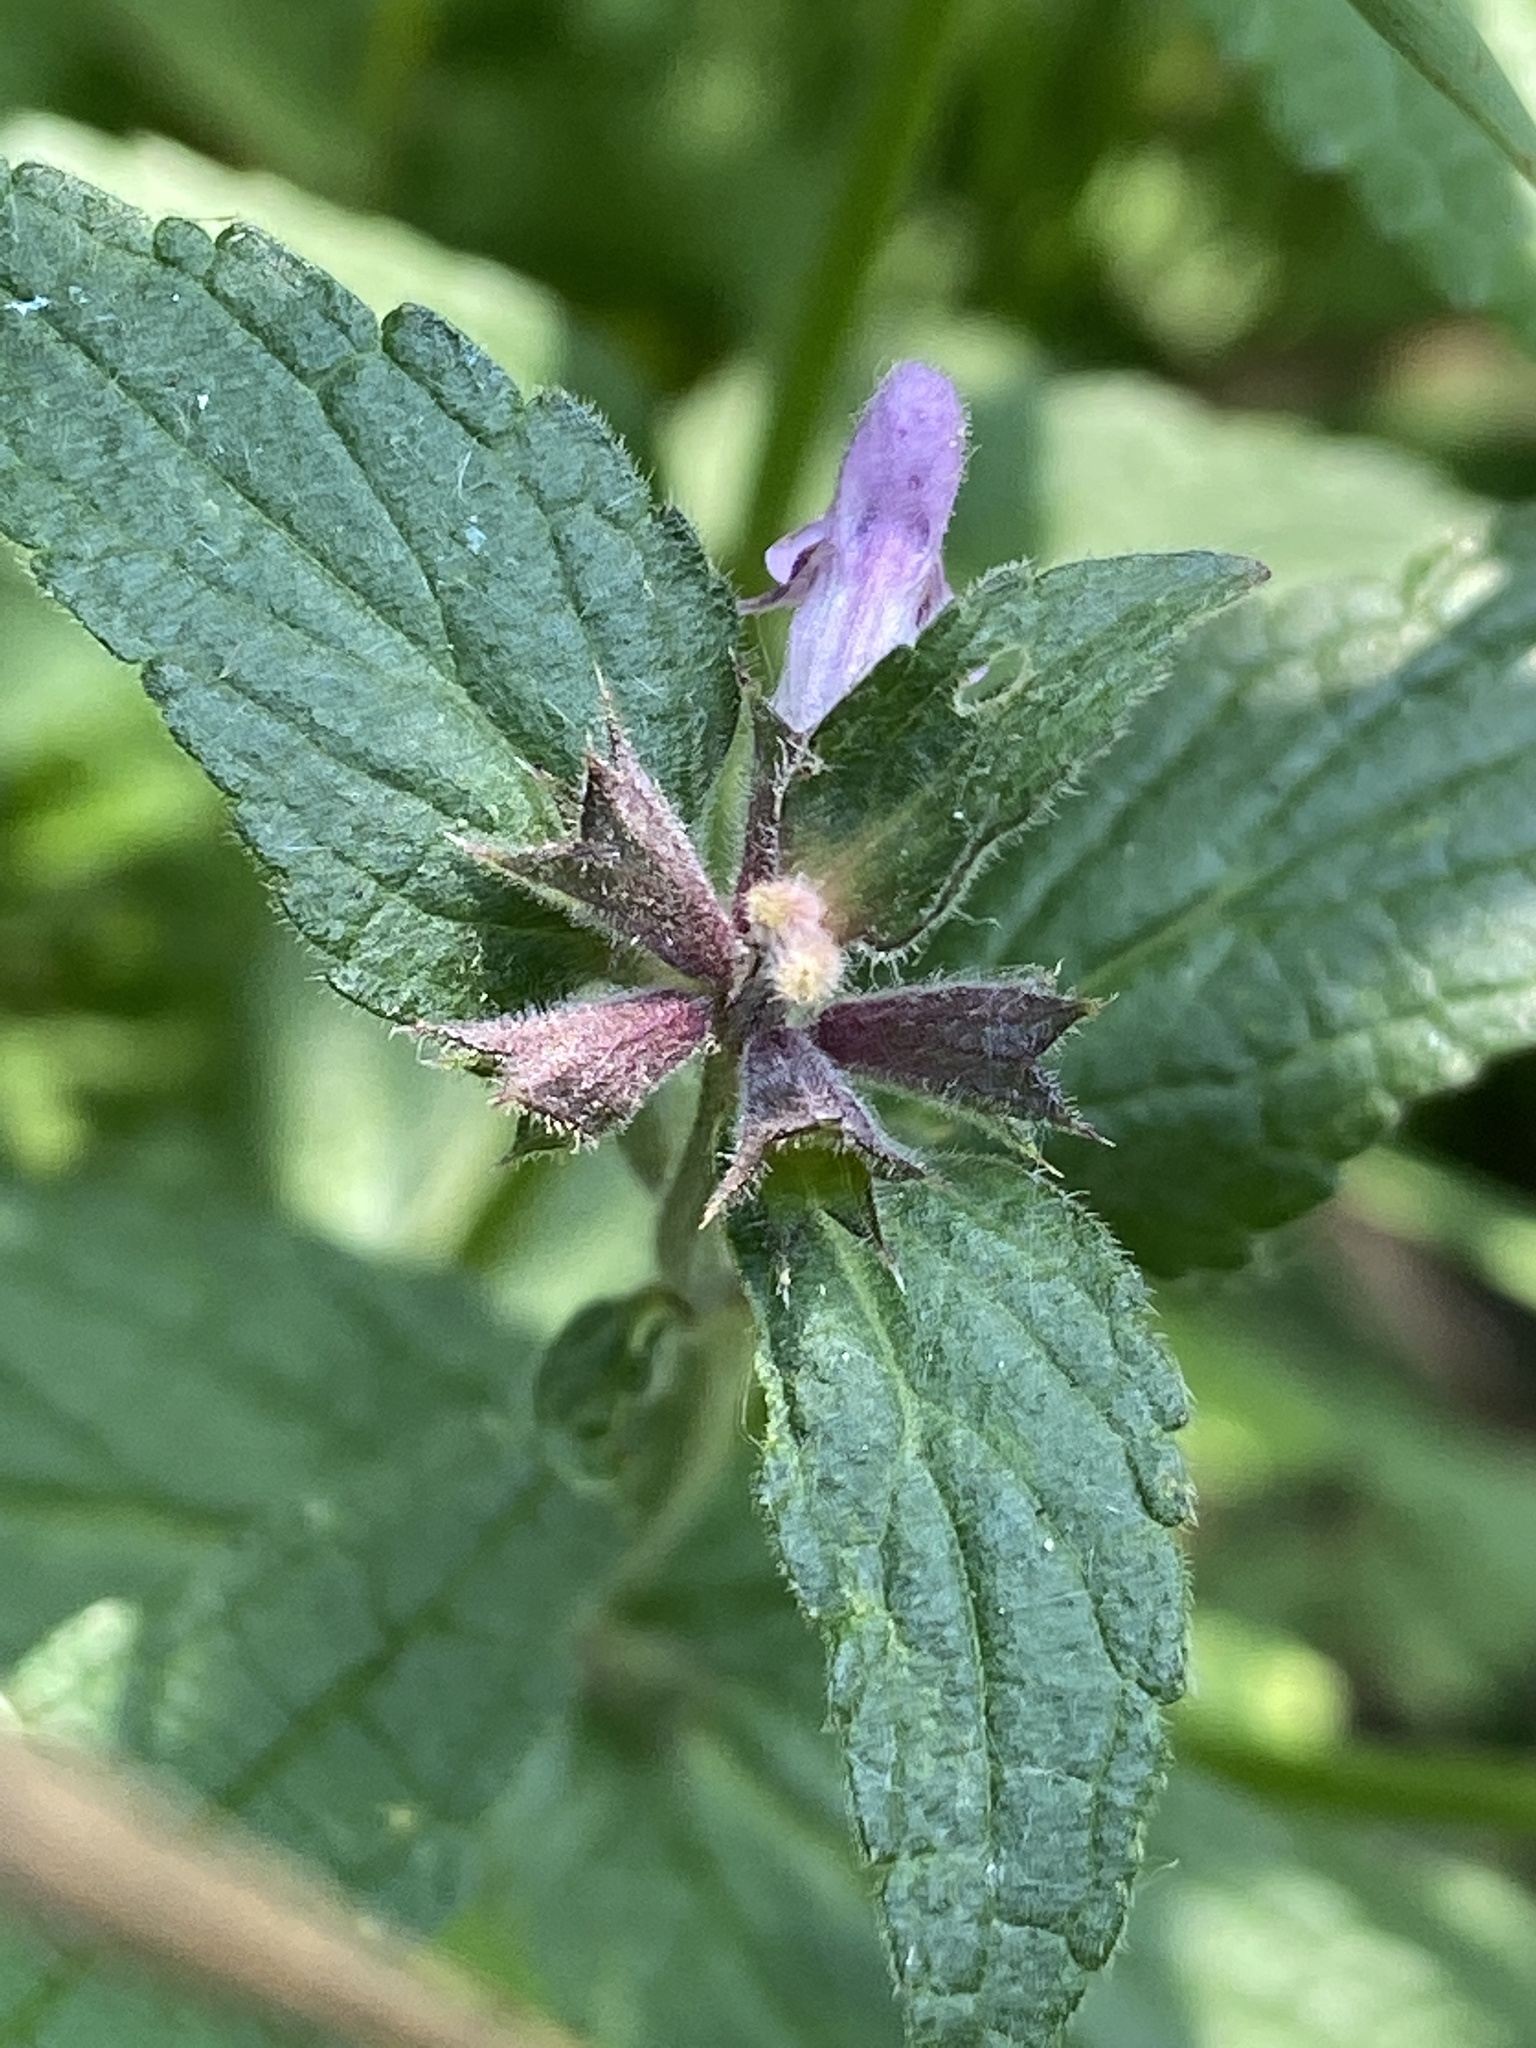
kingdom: Plantae
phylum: Tracheophyta
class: Magnoliopsida
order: Lamiales
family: Lamiaceae
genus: Stachys
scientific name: Stachys palustris
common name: Marsh woundwort
